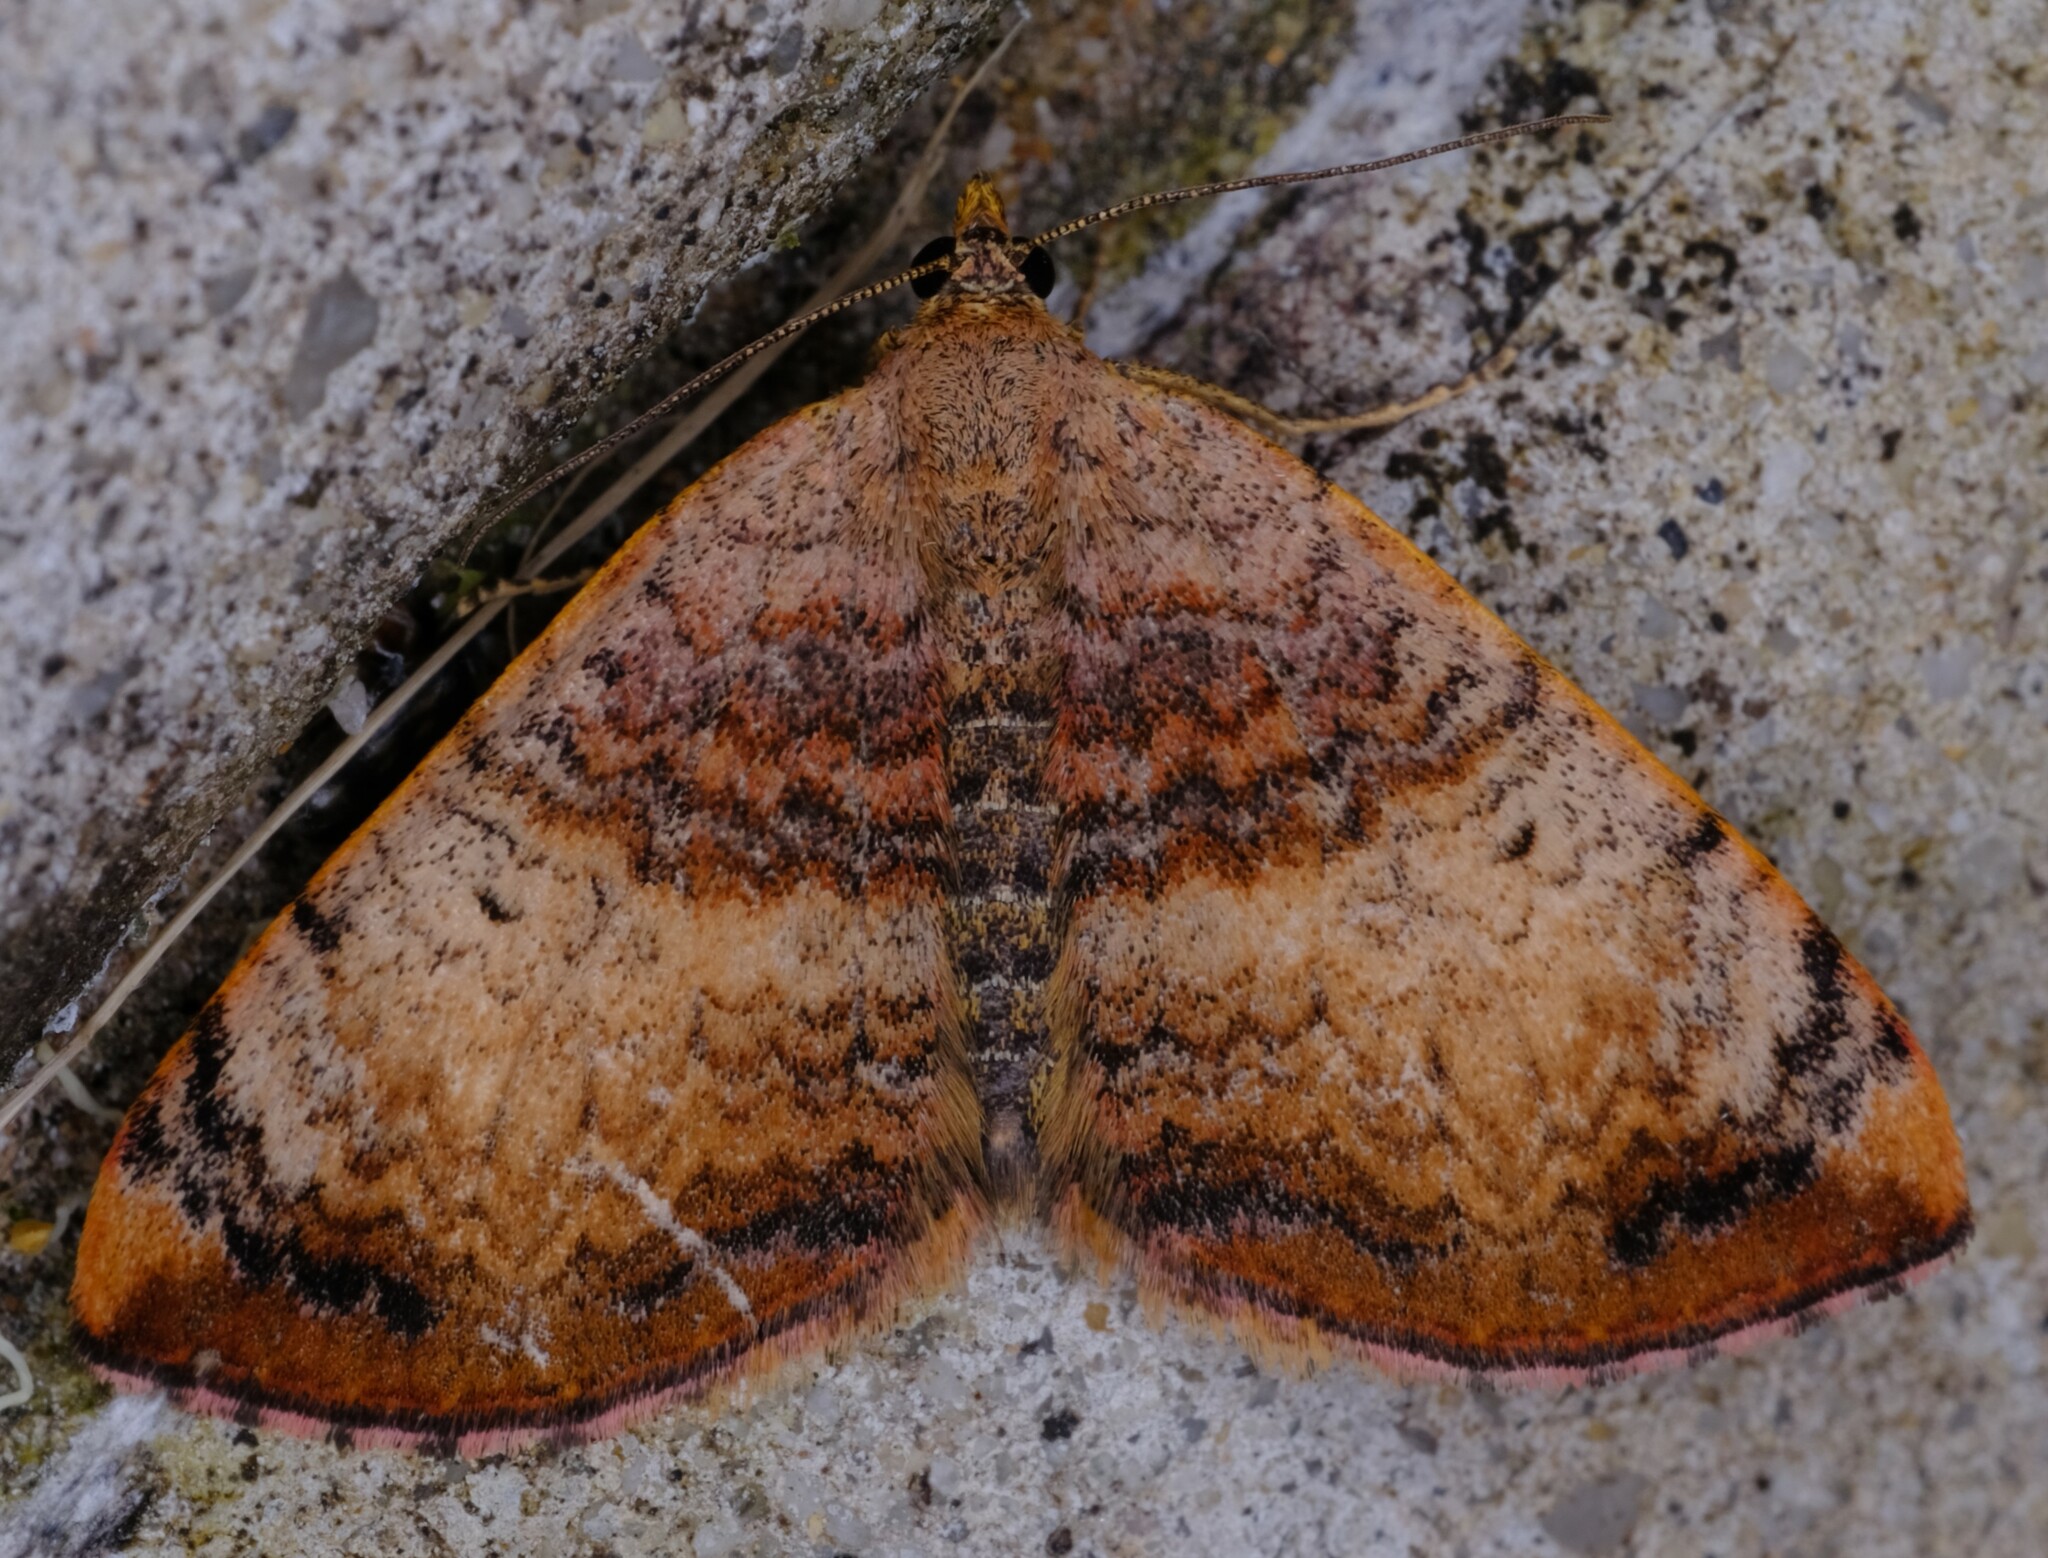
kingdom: Animalia
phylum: Arthropoda
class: Insecta
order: Lepidoptera
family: Geometridae
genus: Chrysolarentia
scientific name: Chrysolarentia mecynata
